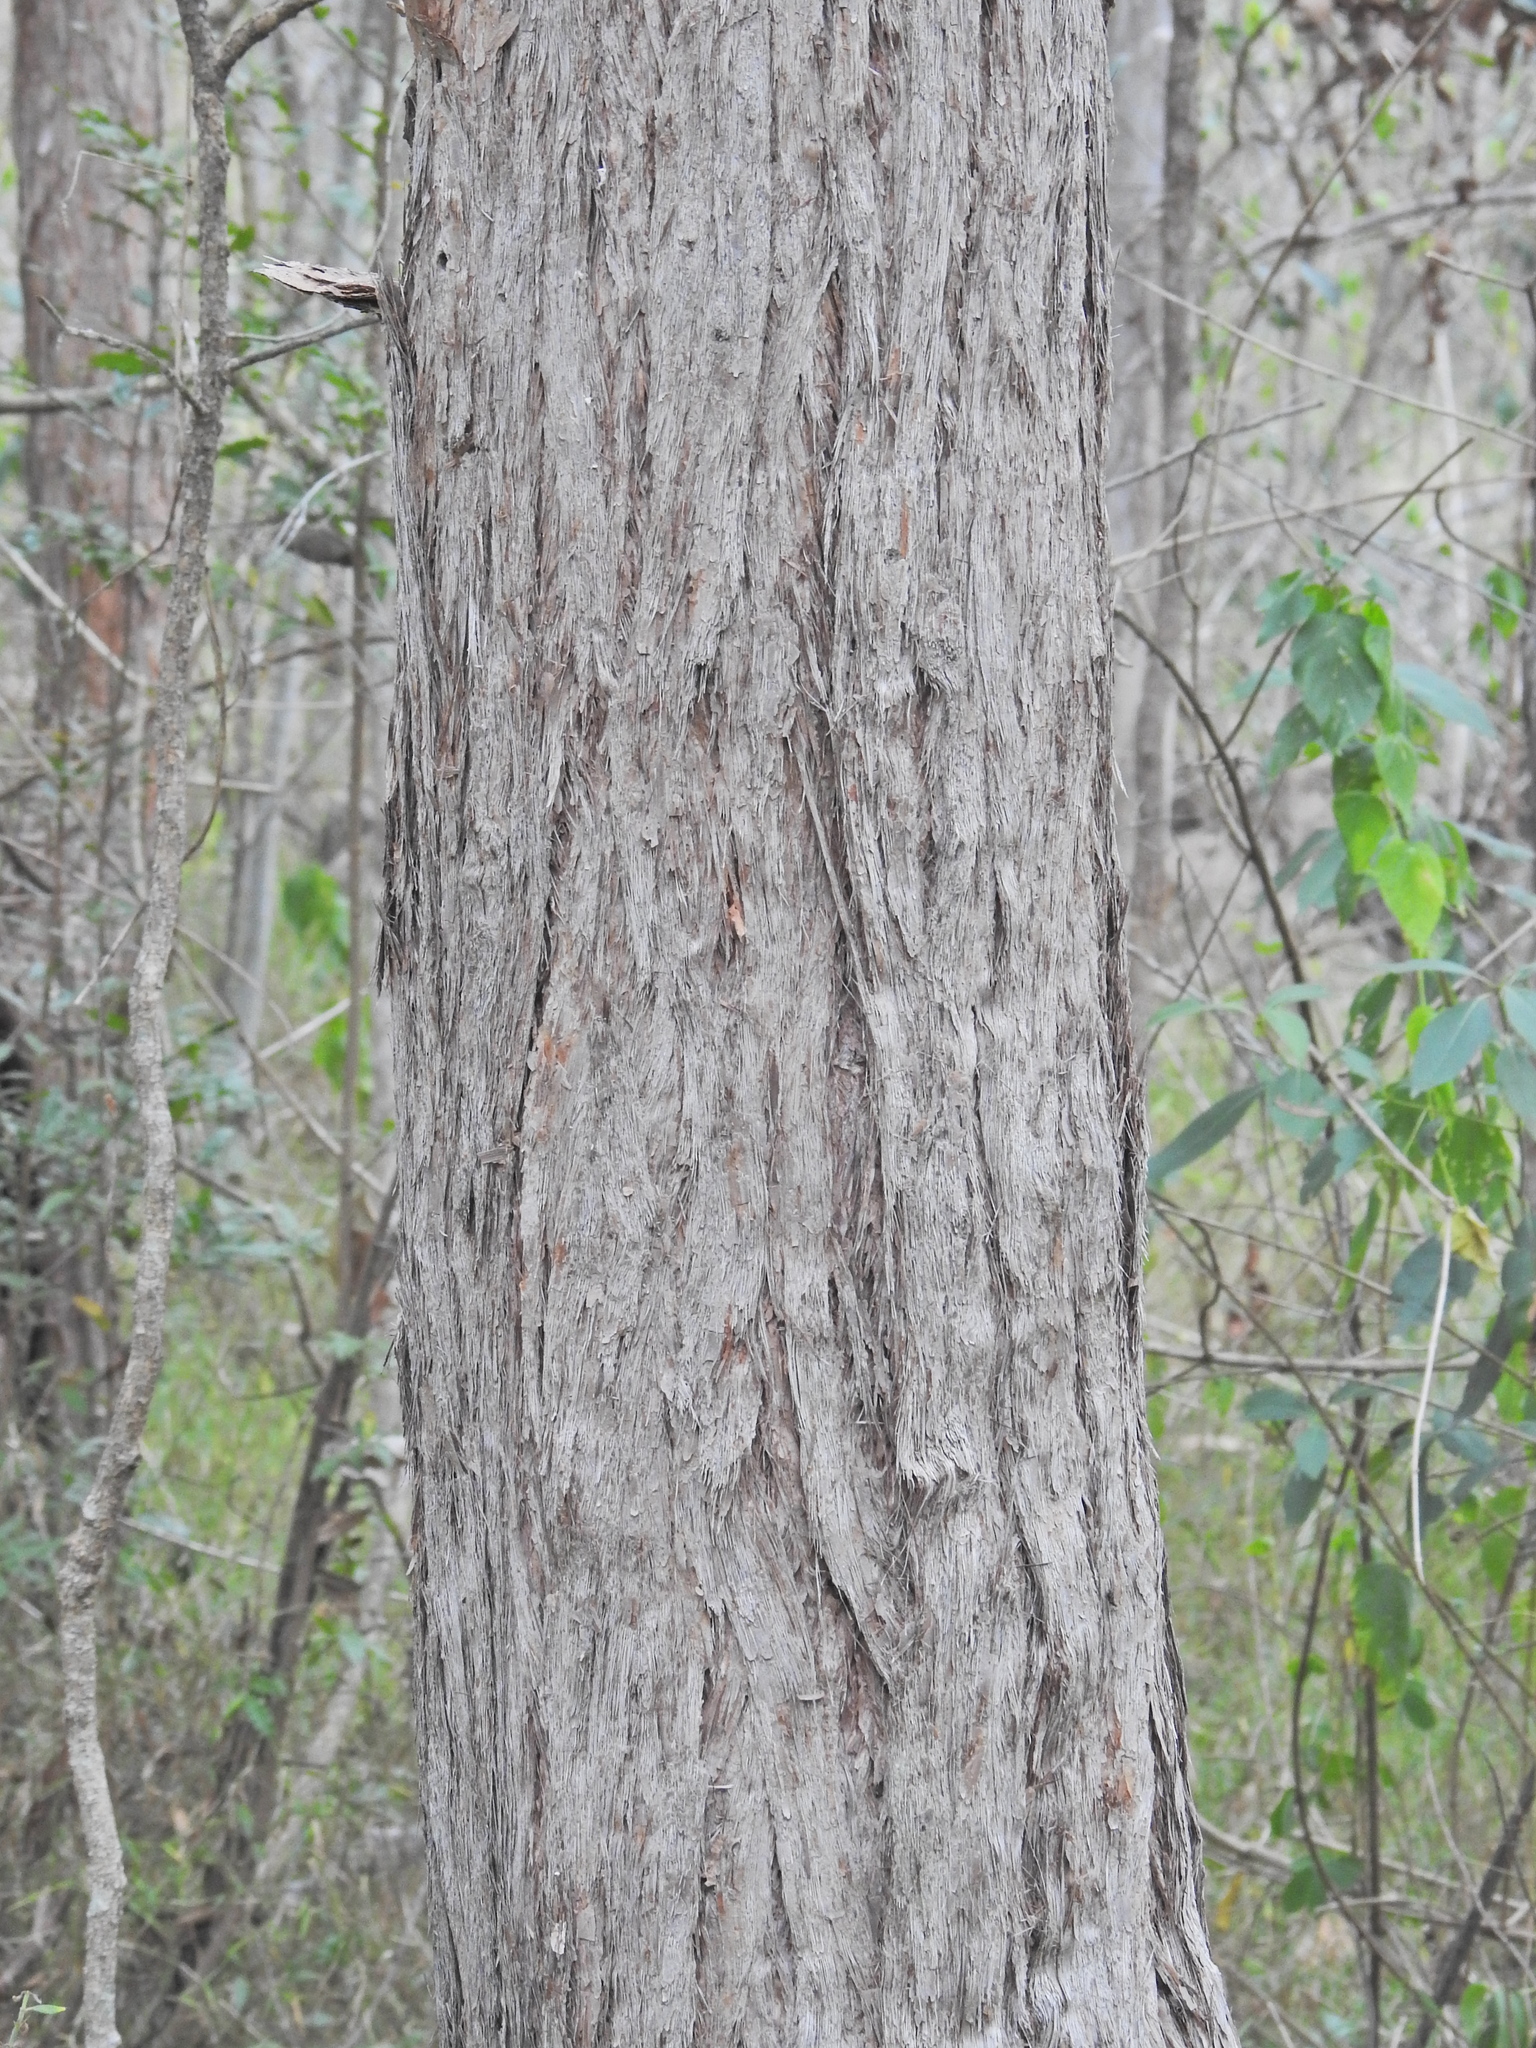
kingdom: Plantae
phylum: Tracheophyta
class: Magnoliopsida
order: Myrtales
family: Myrtaceae
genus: Lophostemon
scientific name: Lophostemon suaveolens
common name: Paperbark-mahogany
